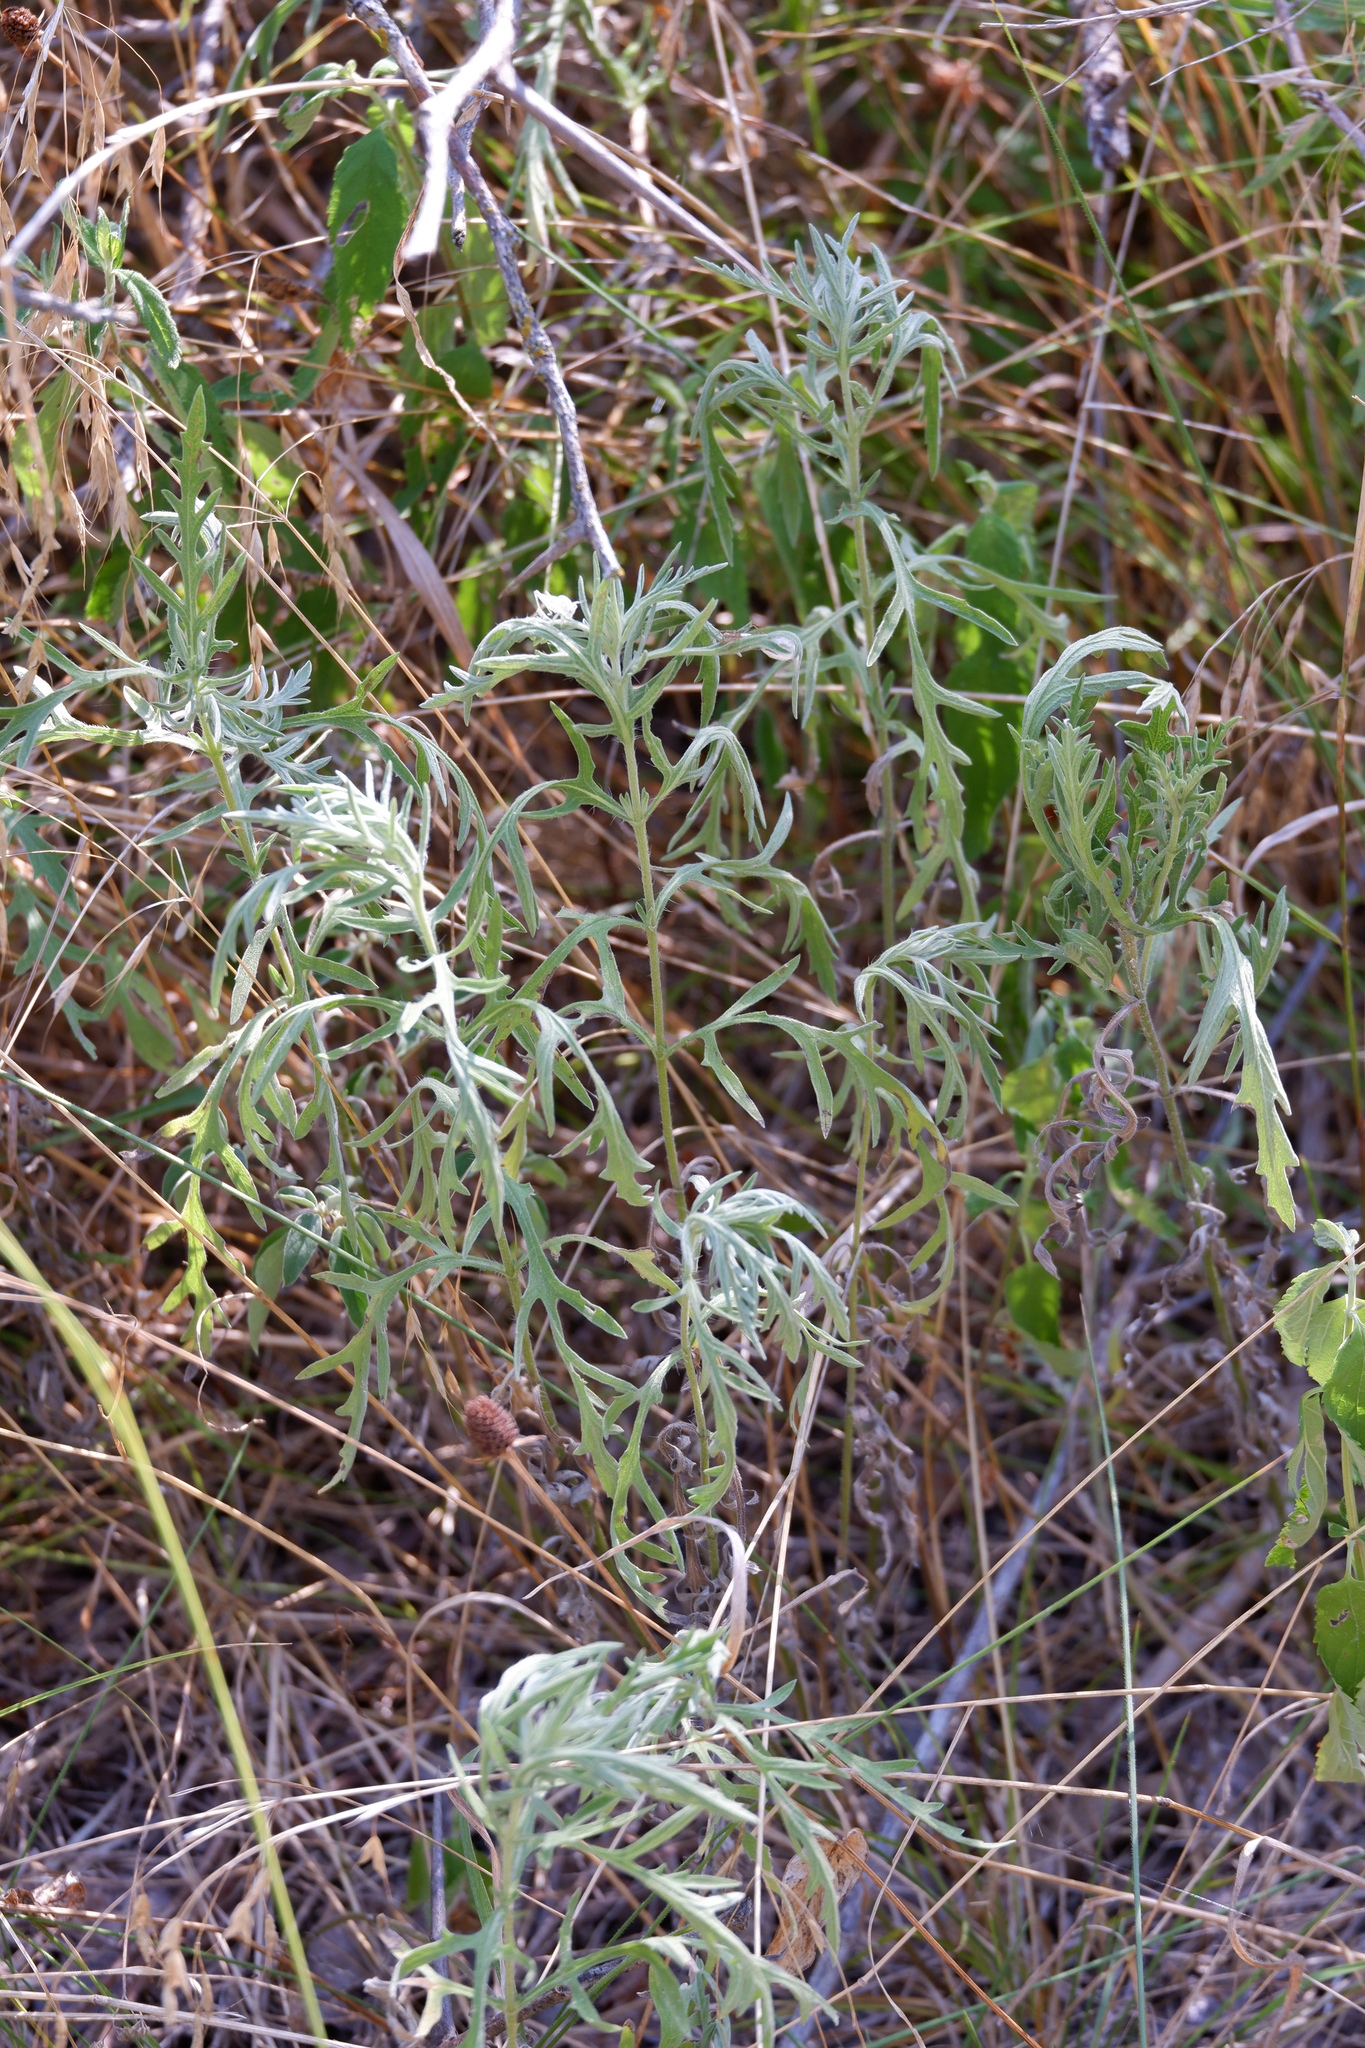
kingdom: Plantae
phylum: Tracheophyta
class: Magnoliopsida
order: Asterales
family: Asteraceae
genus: Artemisia
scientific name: Artemisia ludoviciana
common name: Western mugwort
